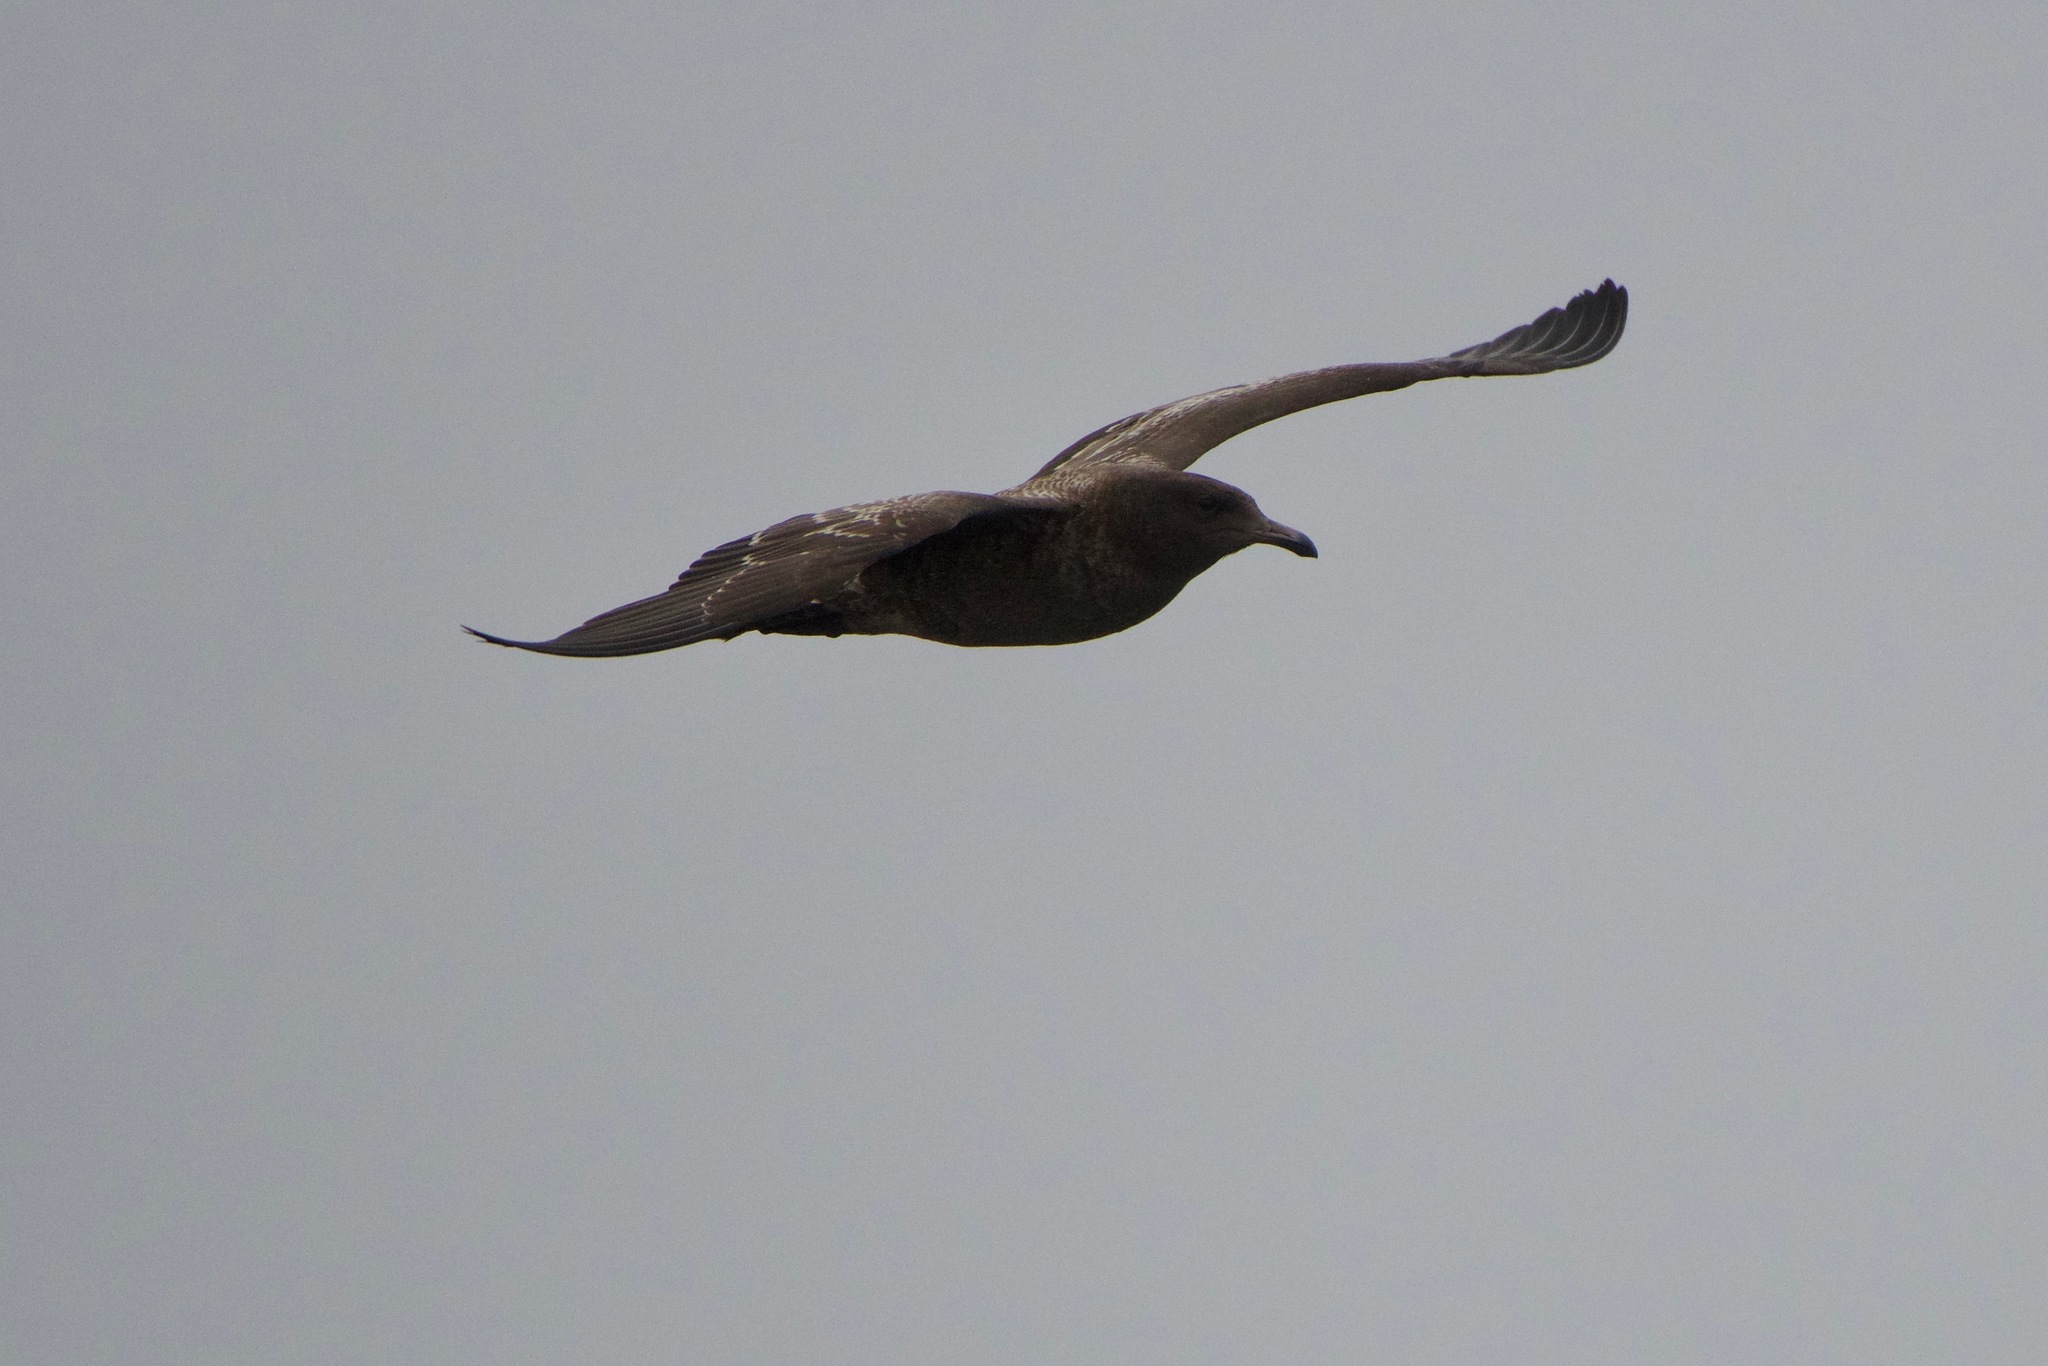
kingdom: Animalia
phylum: Chordata
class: Aves
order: Charadriiformes
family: Laridae
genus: Larus
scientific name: Larus heermanni
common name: Heermann's gull
